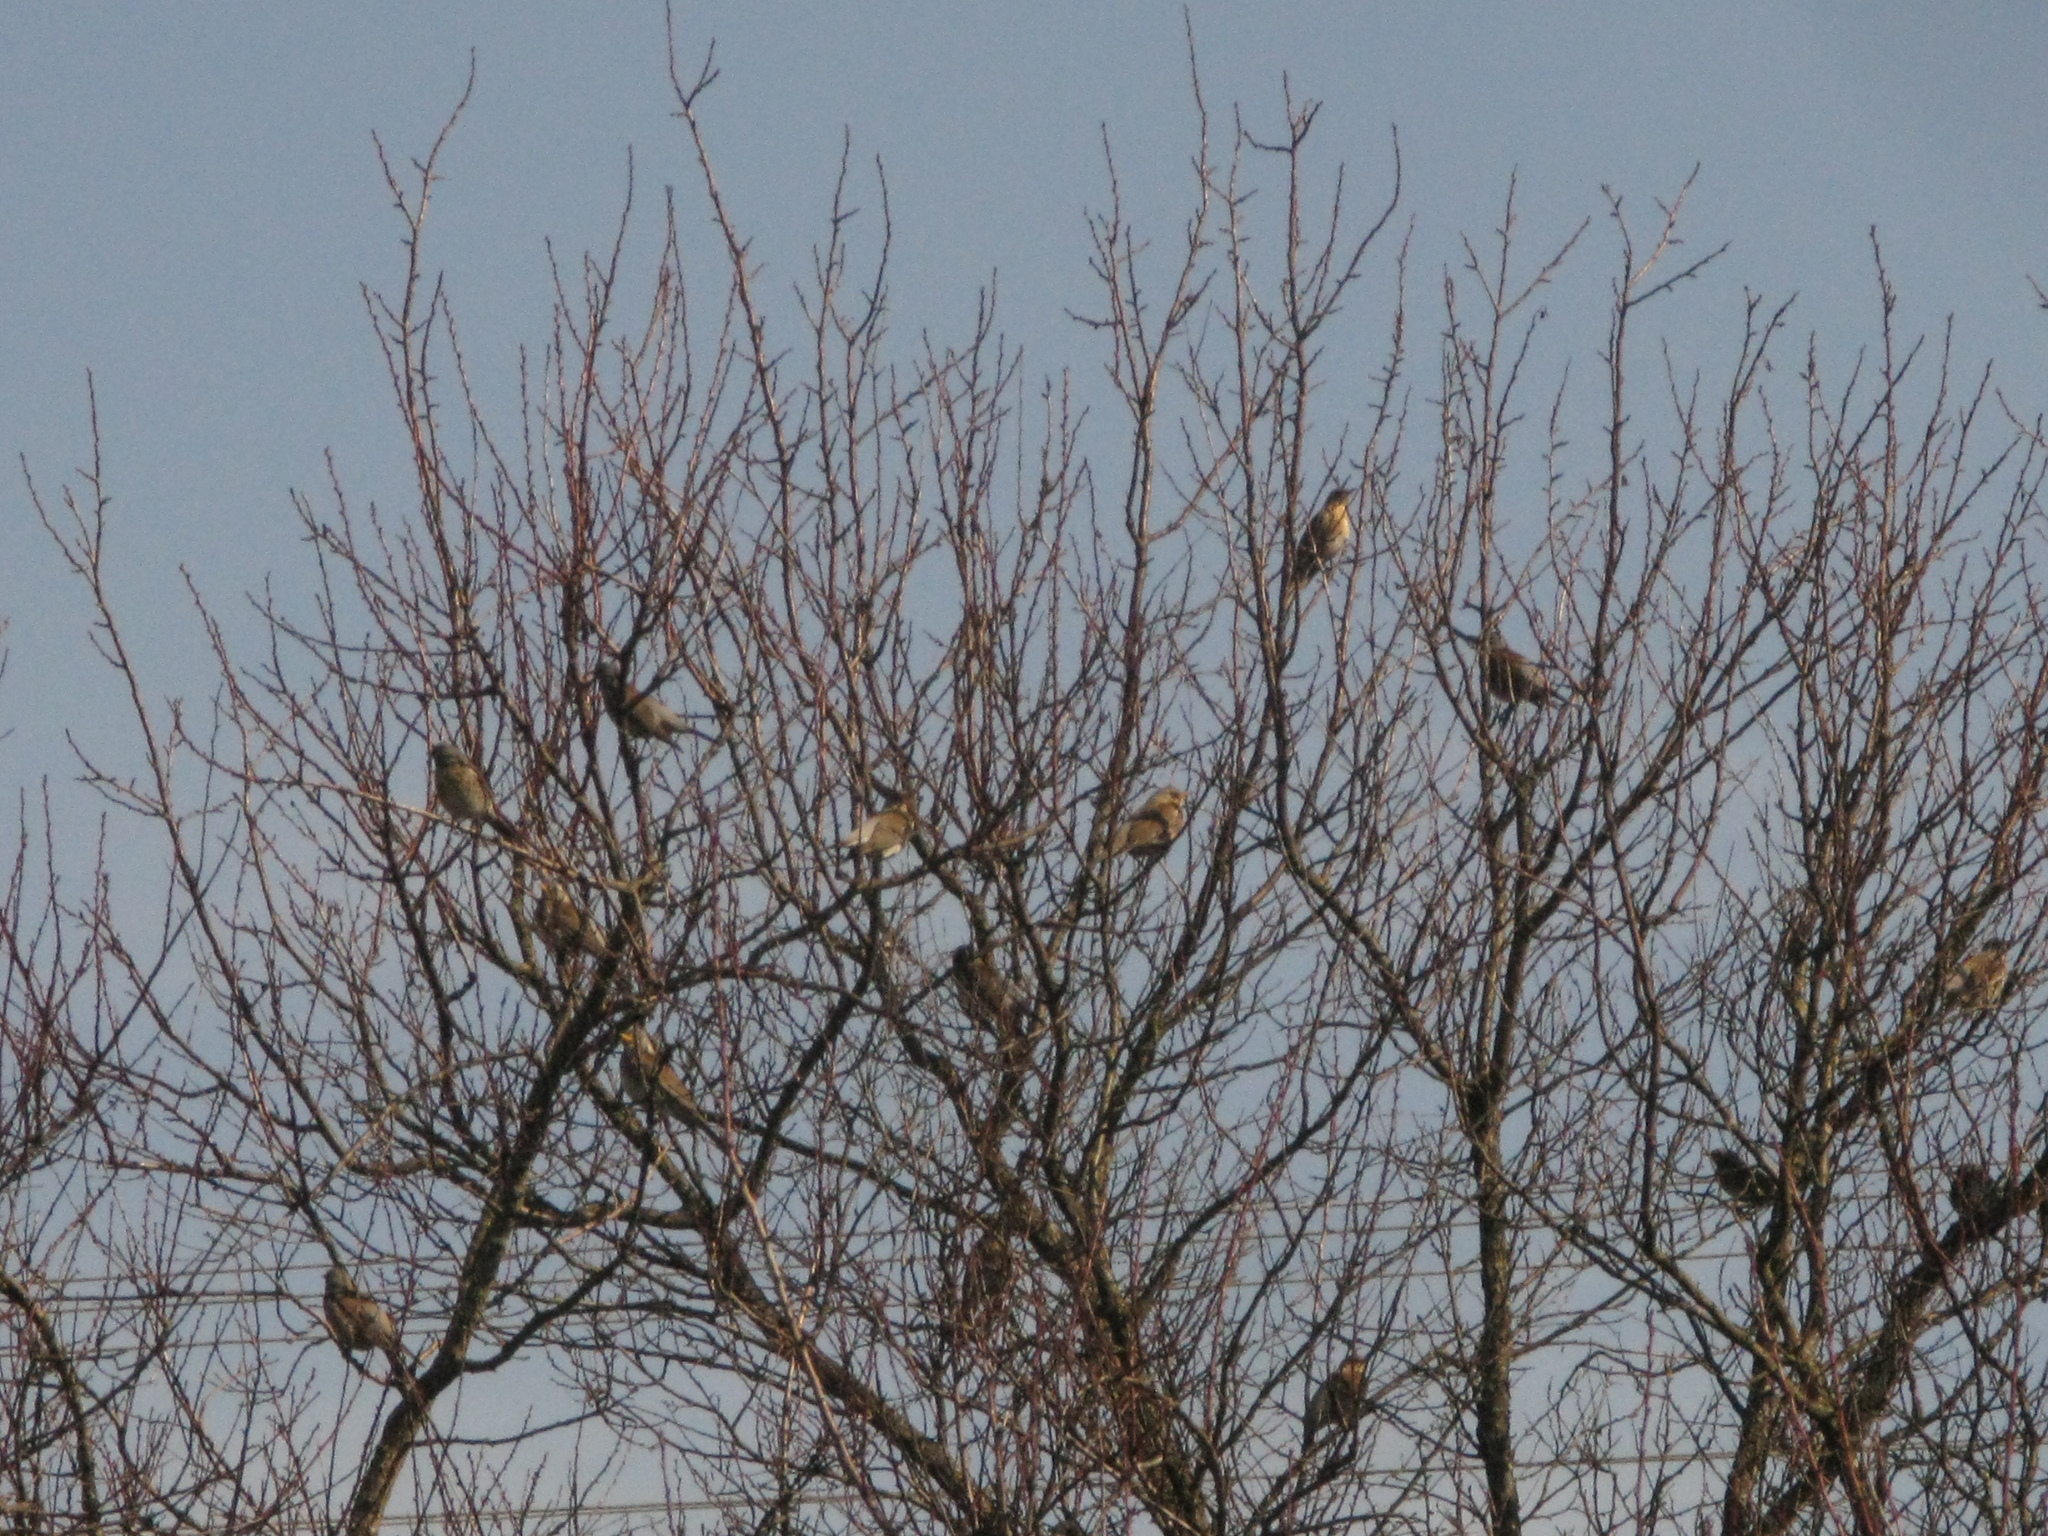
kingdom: Animalia
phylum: Chordata
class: Aves
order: Passeriformes
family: Turdidae
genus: Turdus
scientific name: Turdus pilaris
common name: Fieldfare
